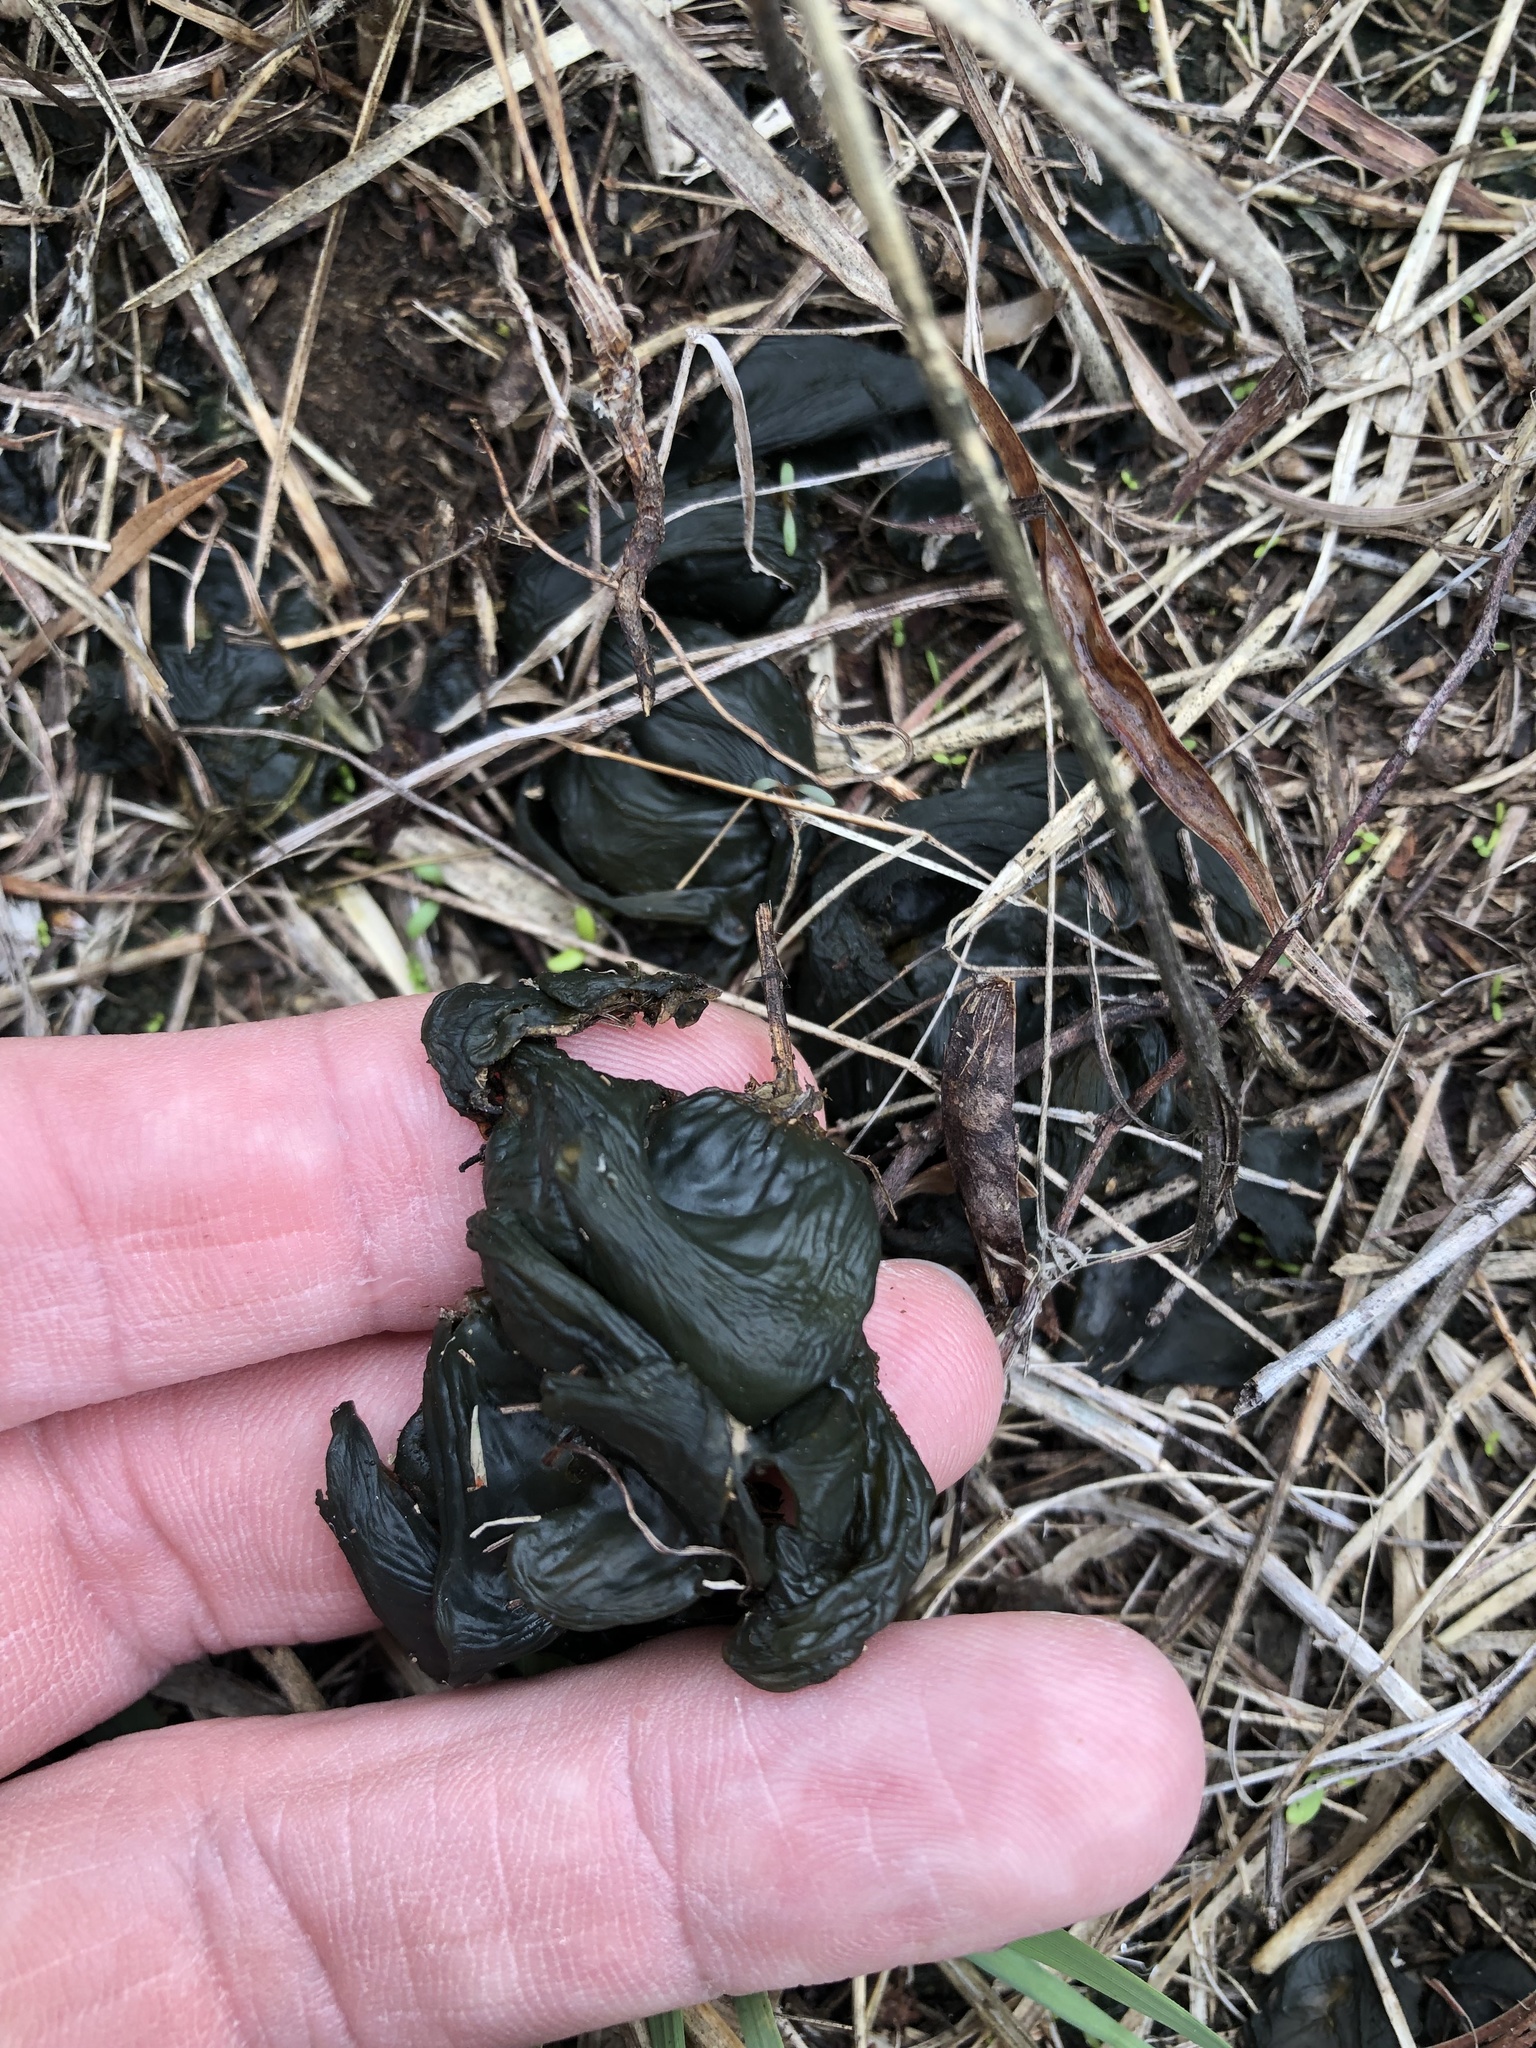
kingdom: Bacteria
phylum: Cyanobacteria
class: Cyanobacteriia
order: Cyanobacteriales
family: Nostocaceae
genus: Nostoc
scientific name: Nostoc commune
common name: Star jelly
